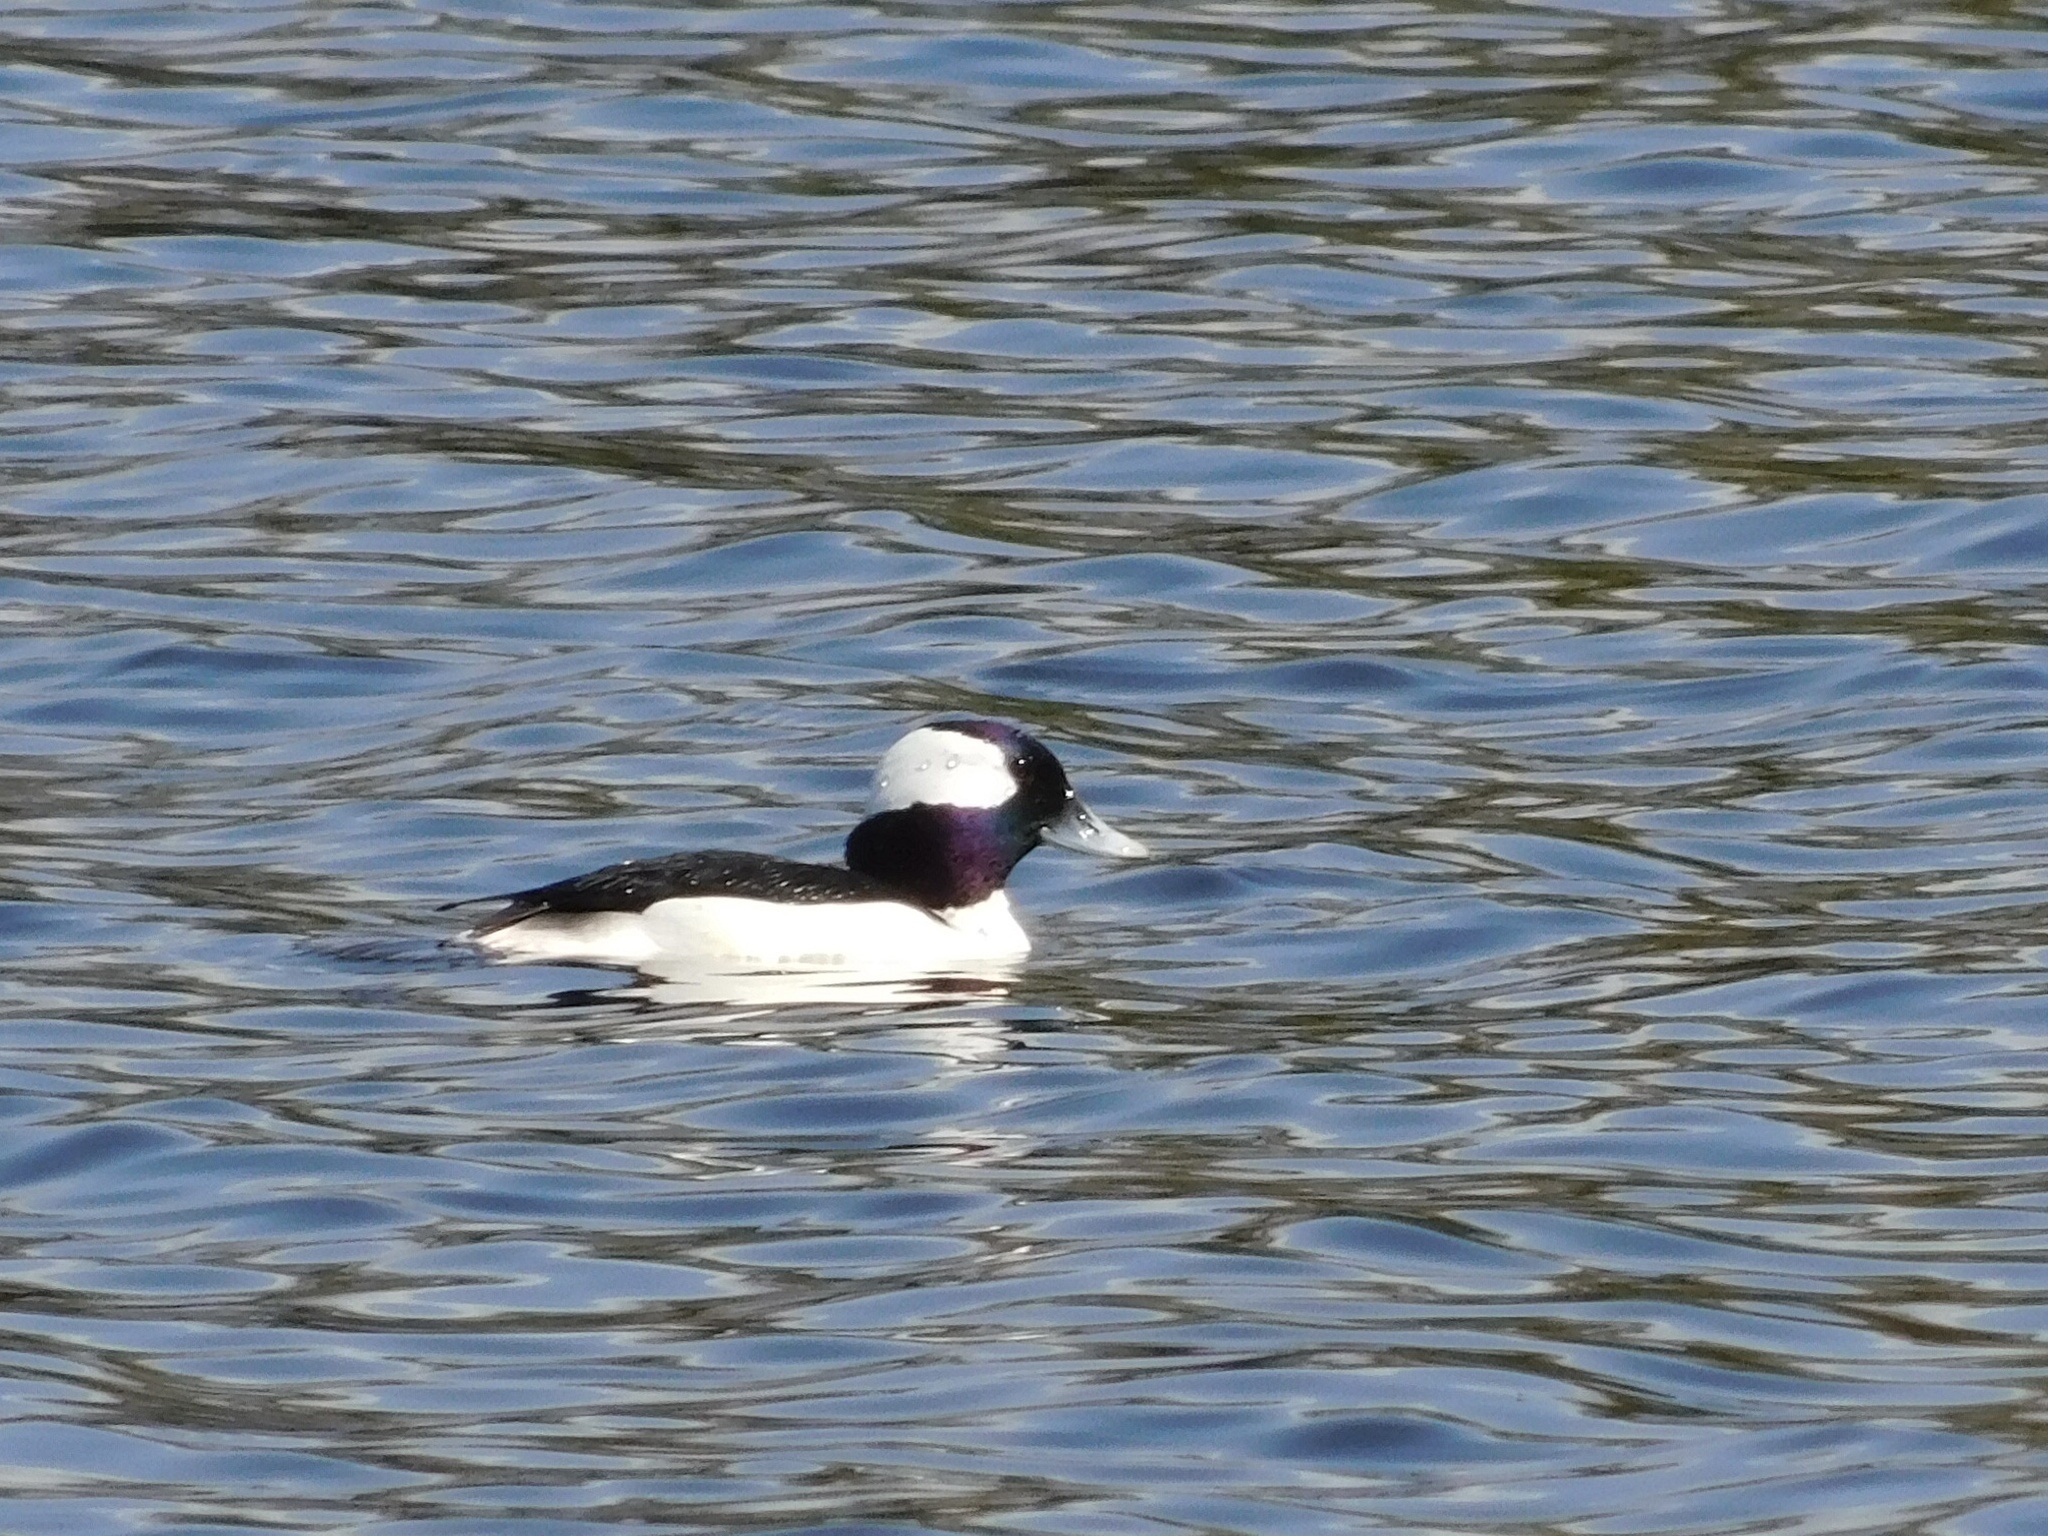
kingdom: Animalia
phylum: Chordata
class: Aves
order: Anseriformes
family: Anatidae
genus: Bucephala
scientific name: Bucephala albeola
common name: Bufflehead
